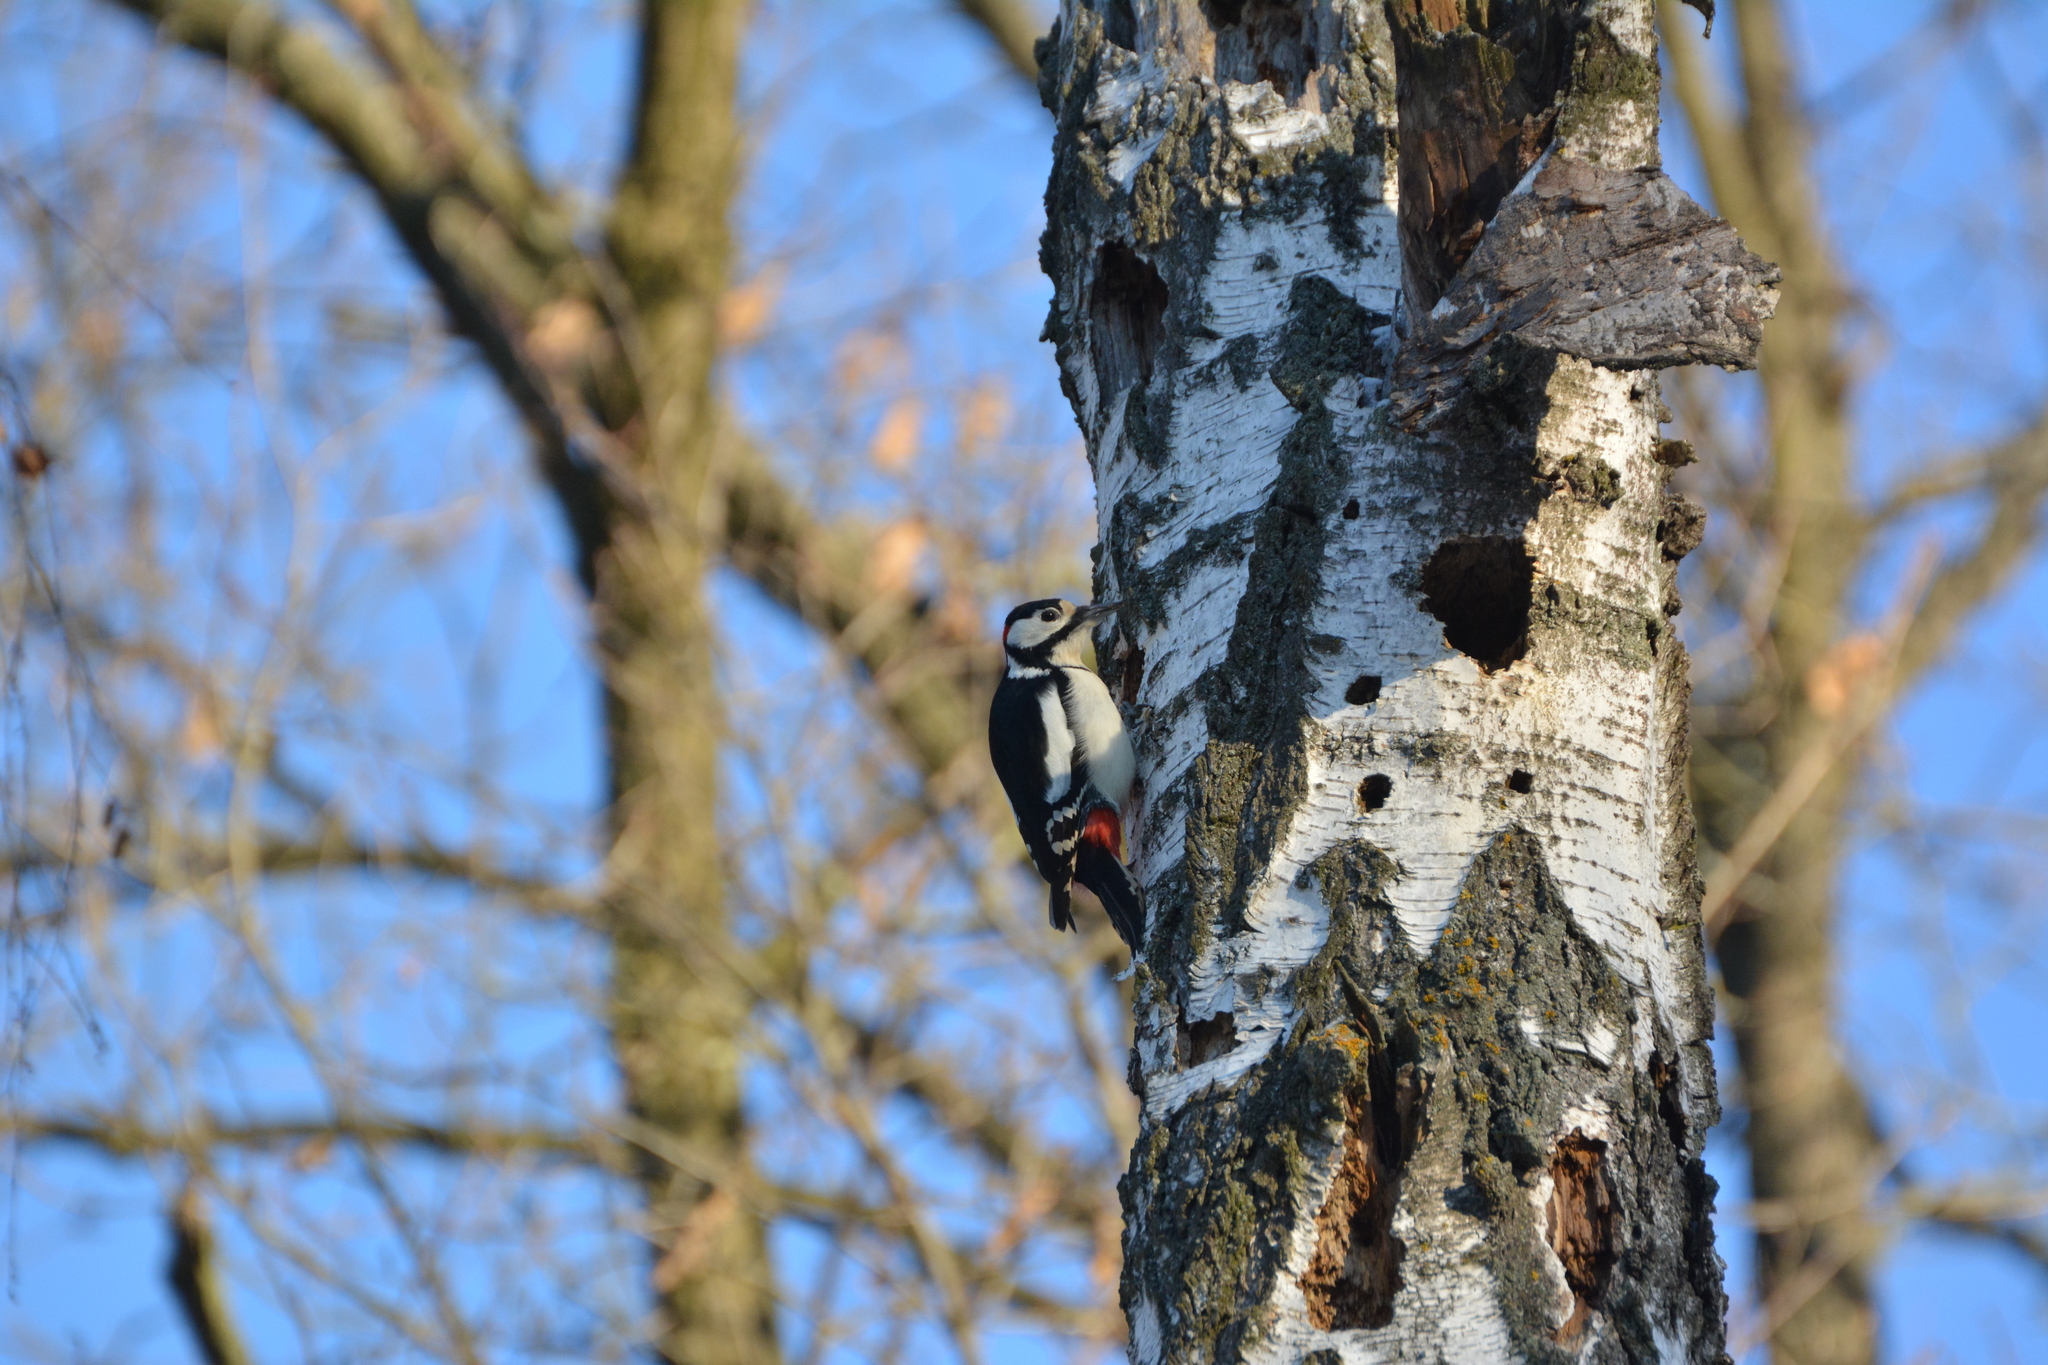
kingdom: Animalia
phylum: Chordata
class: Aves
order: Piciformes
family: Picidae
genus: Dendrocopos
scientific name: Dendrocopos major
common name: Great spotted woodpecker
